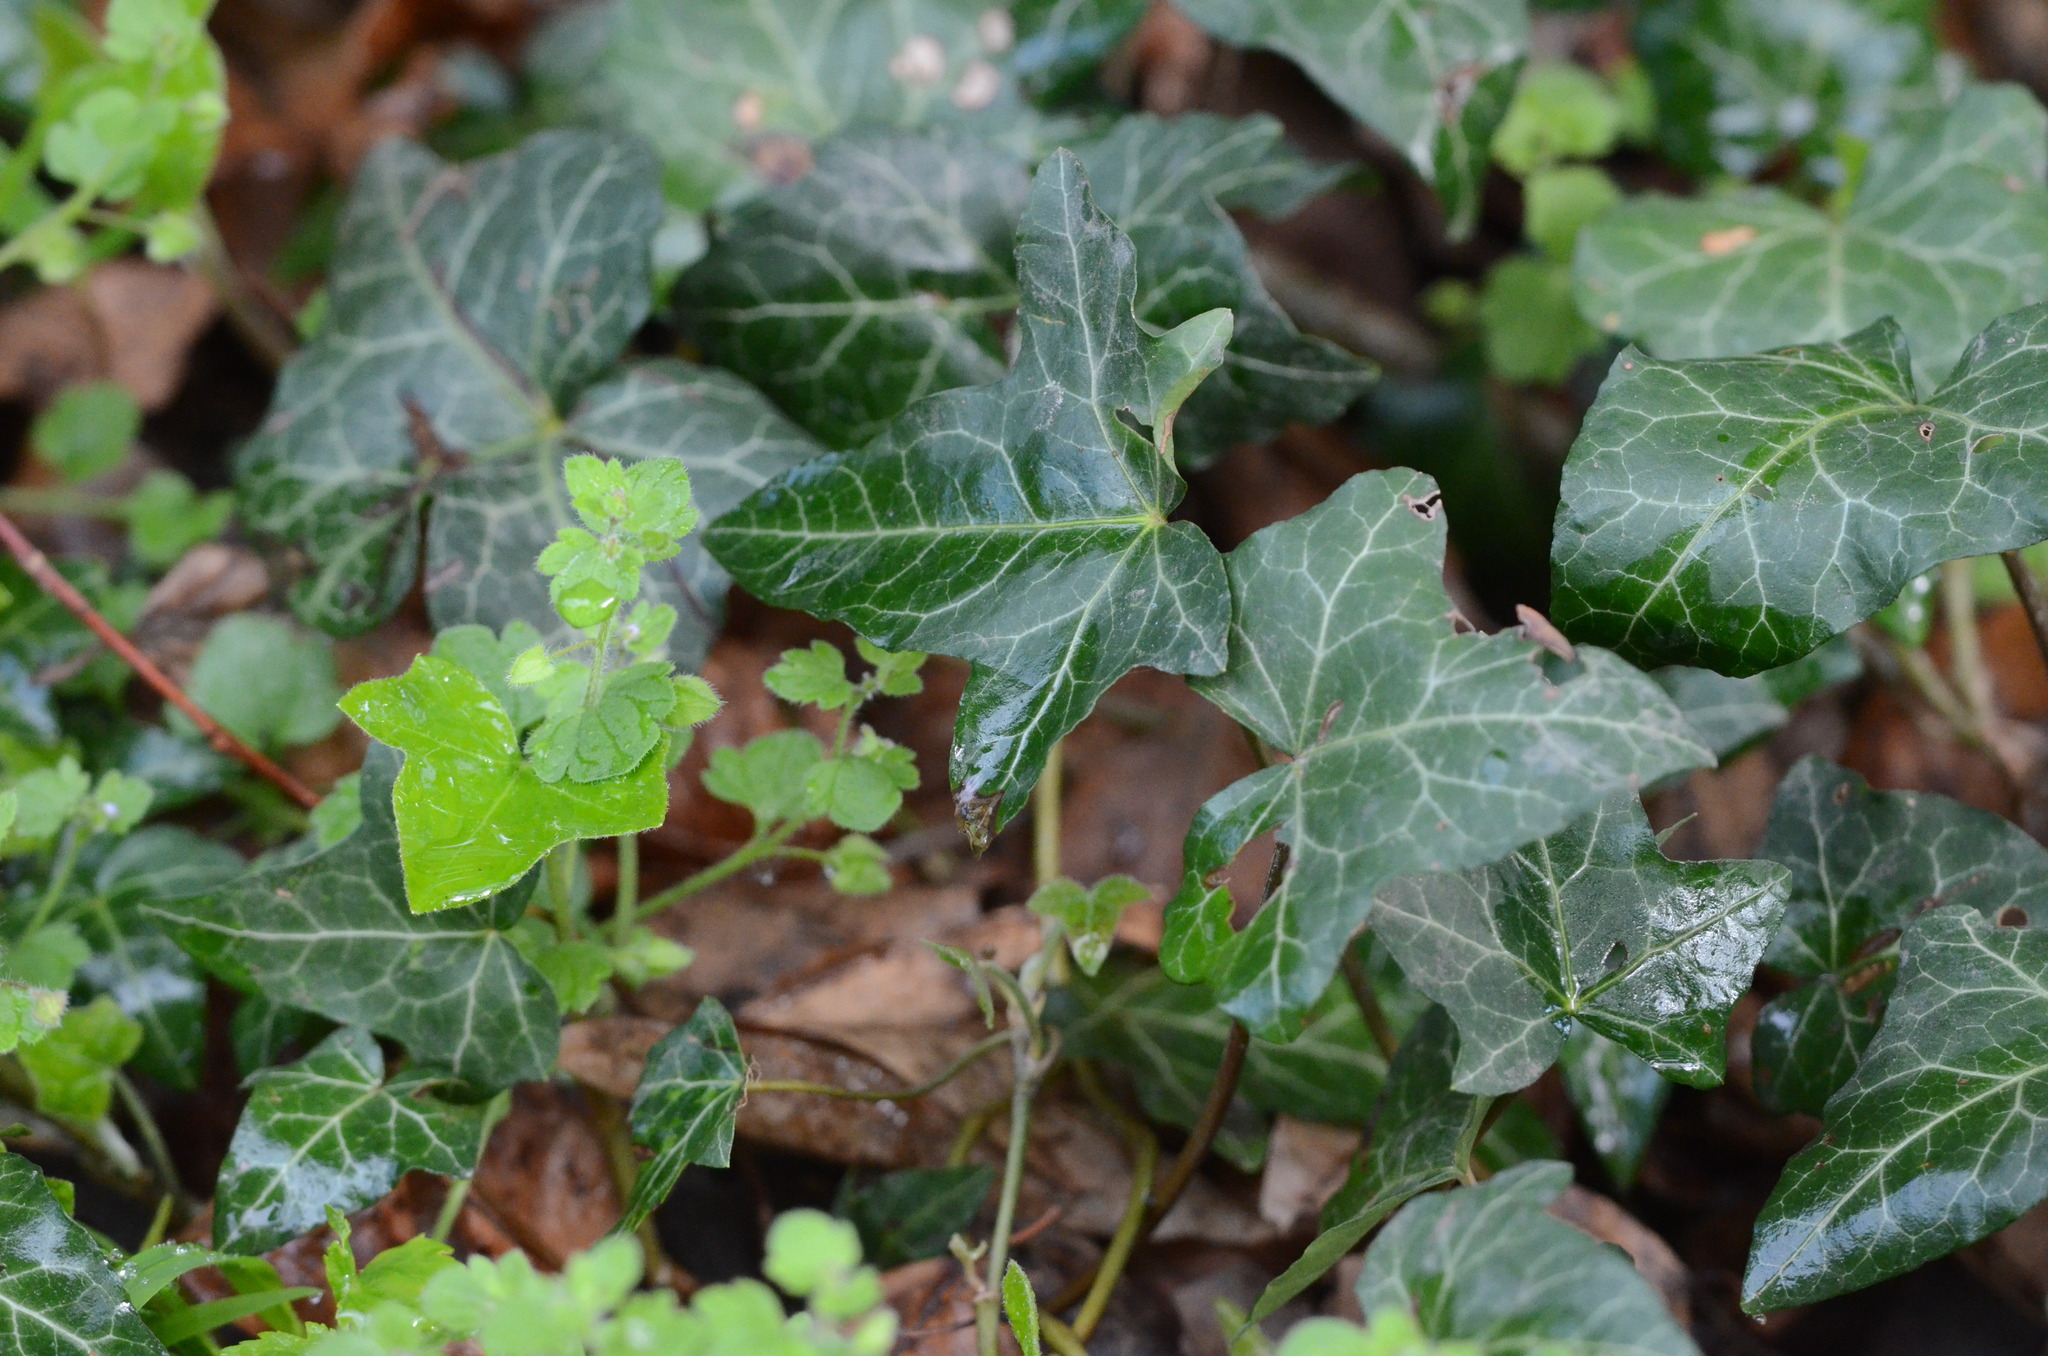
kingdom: Plantae
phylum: Tracheophyta
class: Magnoliopsida
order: Apiales
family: Araliaceae
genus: Hedera
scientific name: Hedera helix
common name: Ivy
